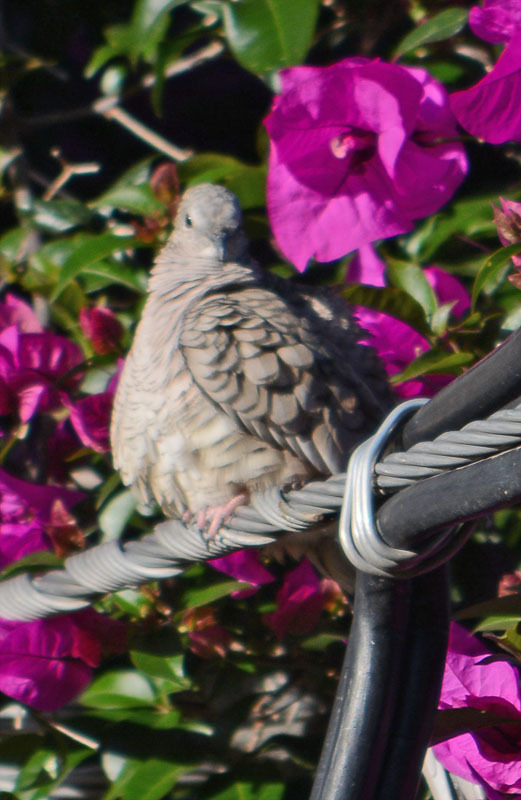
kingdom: Animalia
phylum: Chordata
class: Aves
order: Columbiformes
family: Columbidae
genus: Columbina
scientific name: Columbina inca
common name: Inca dove
